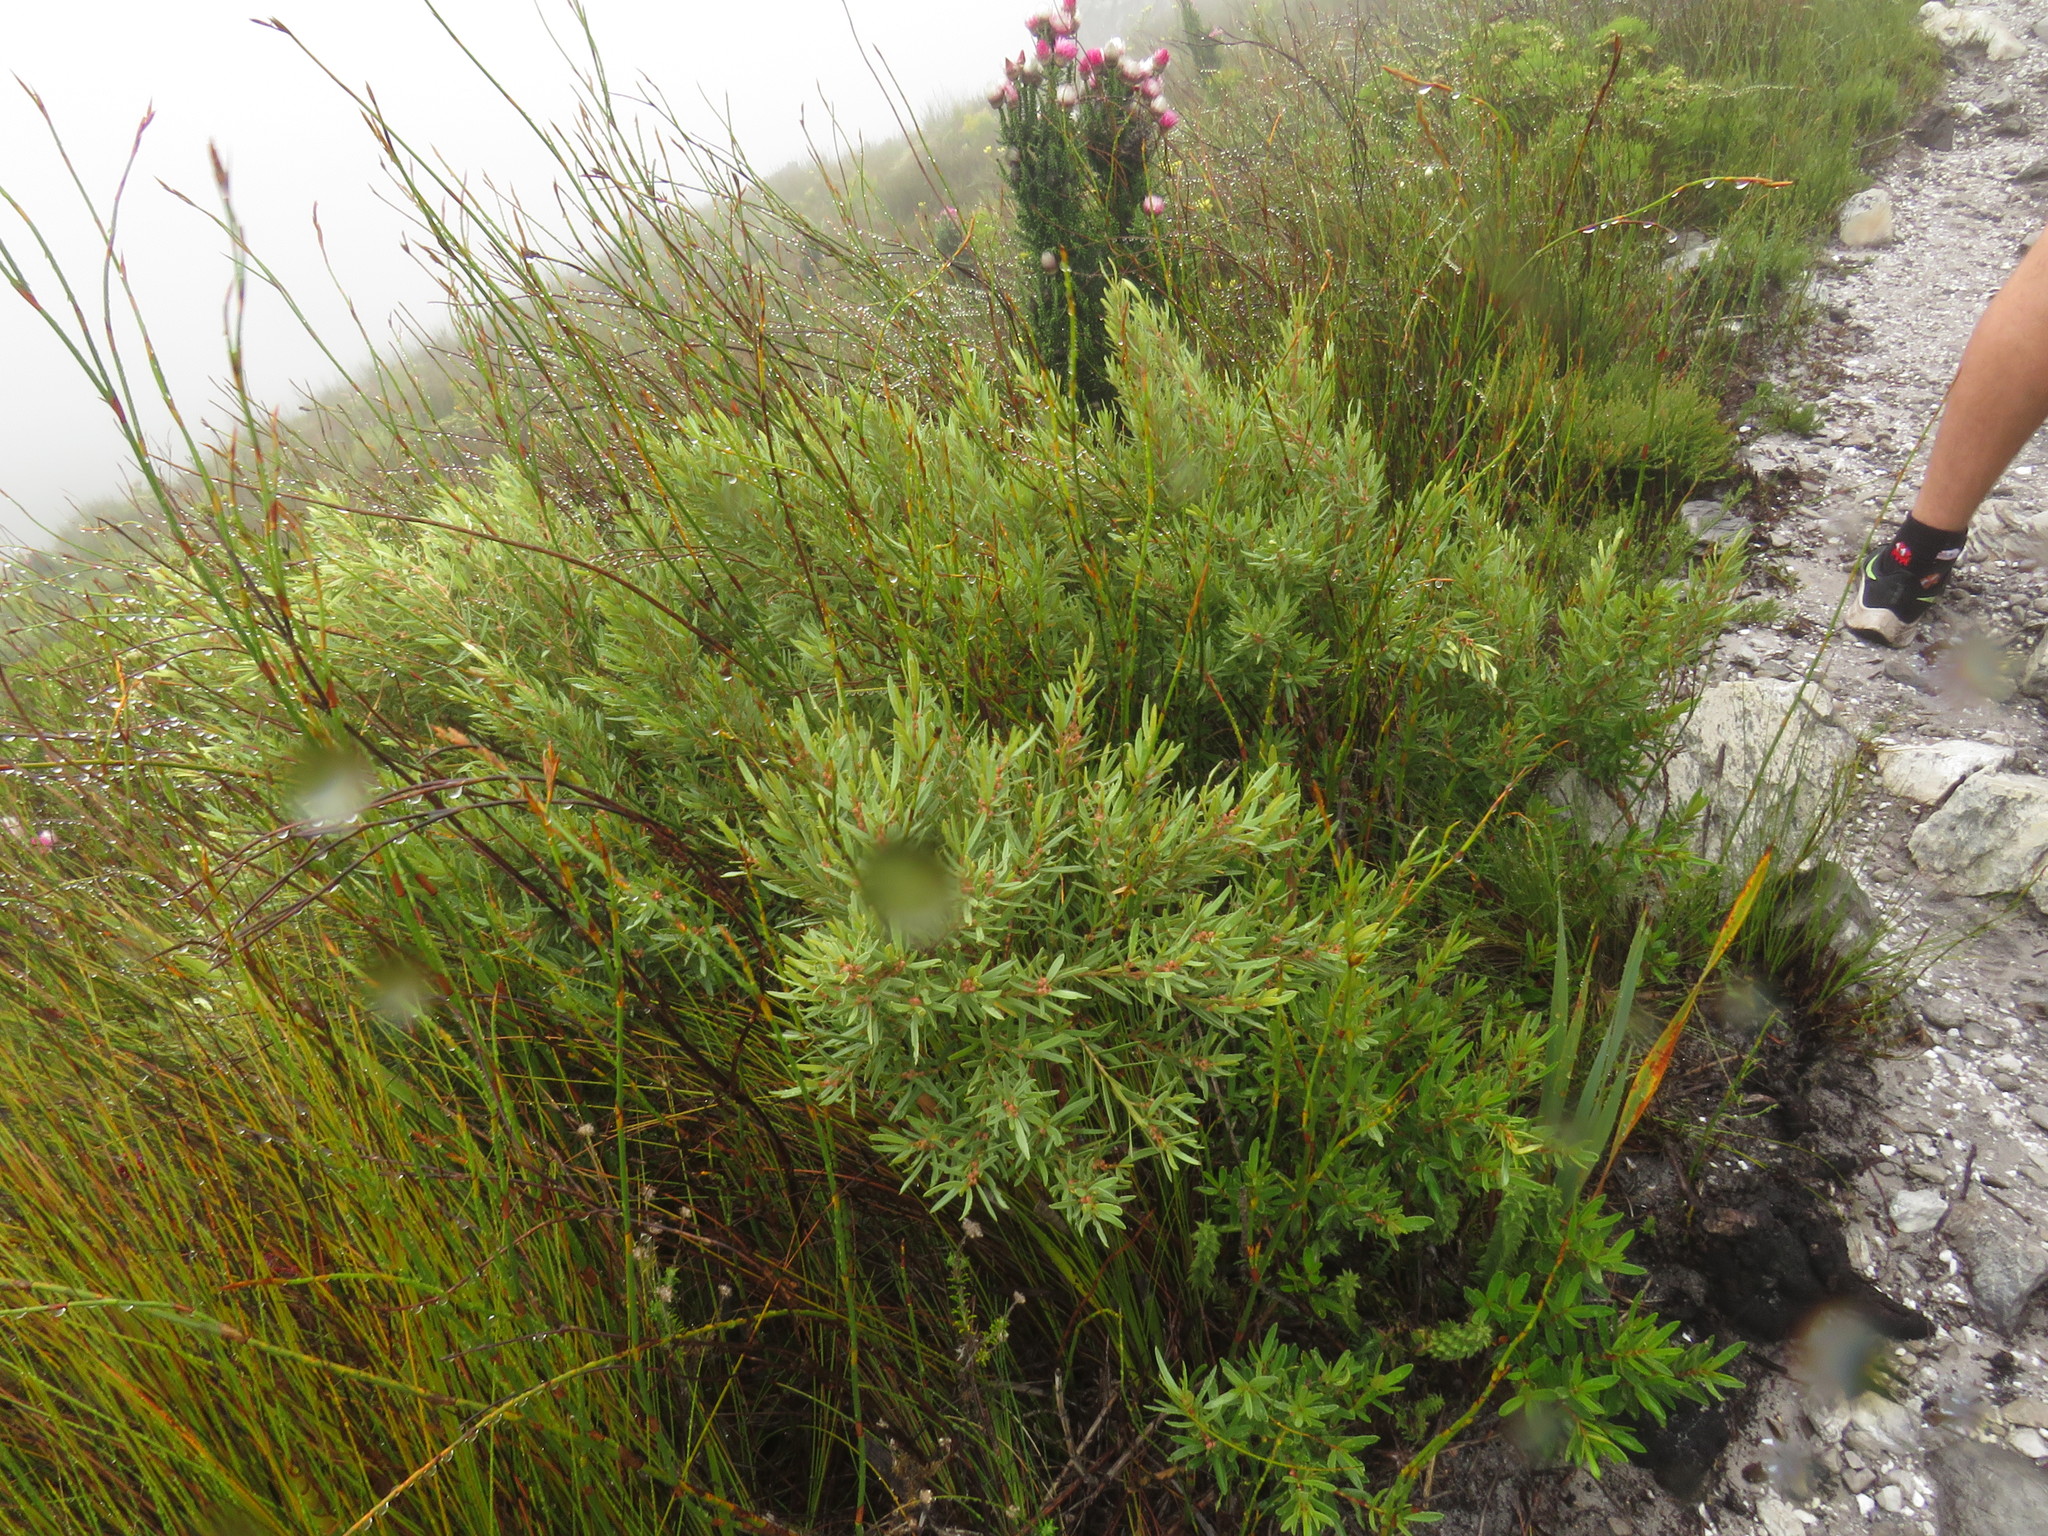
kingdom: Plantae
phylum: Tracheophyta
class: Magnoliopsida
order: Asterales
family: Asteraceae
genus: Phaenocoma
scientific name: Phaenocoma prolifera
